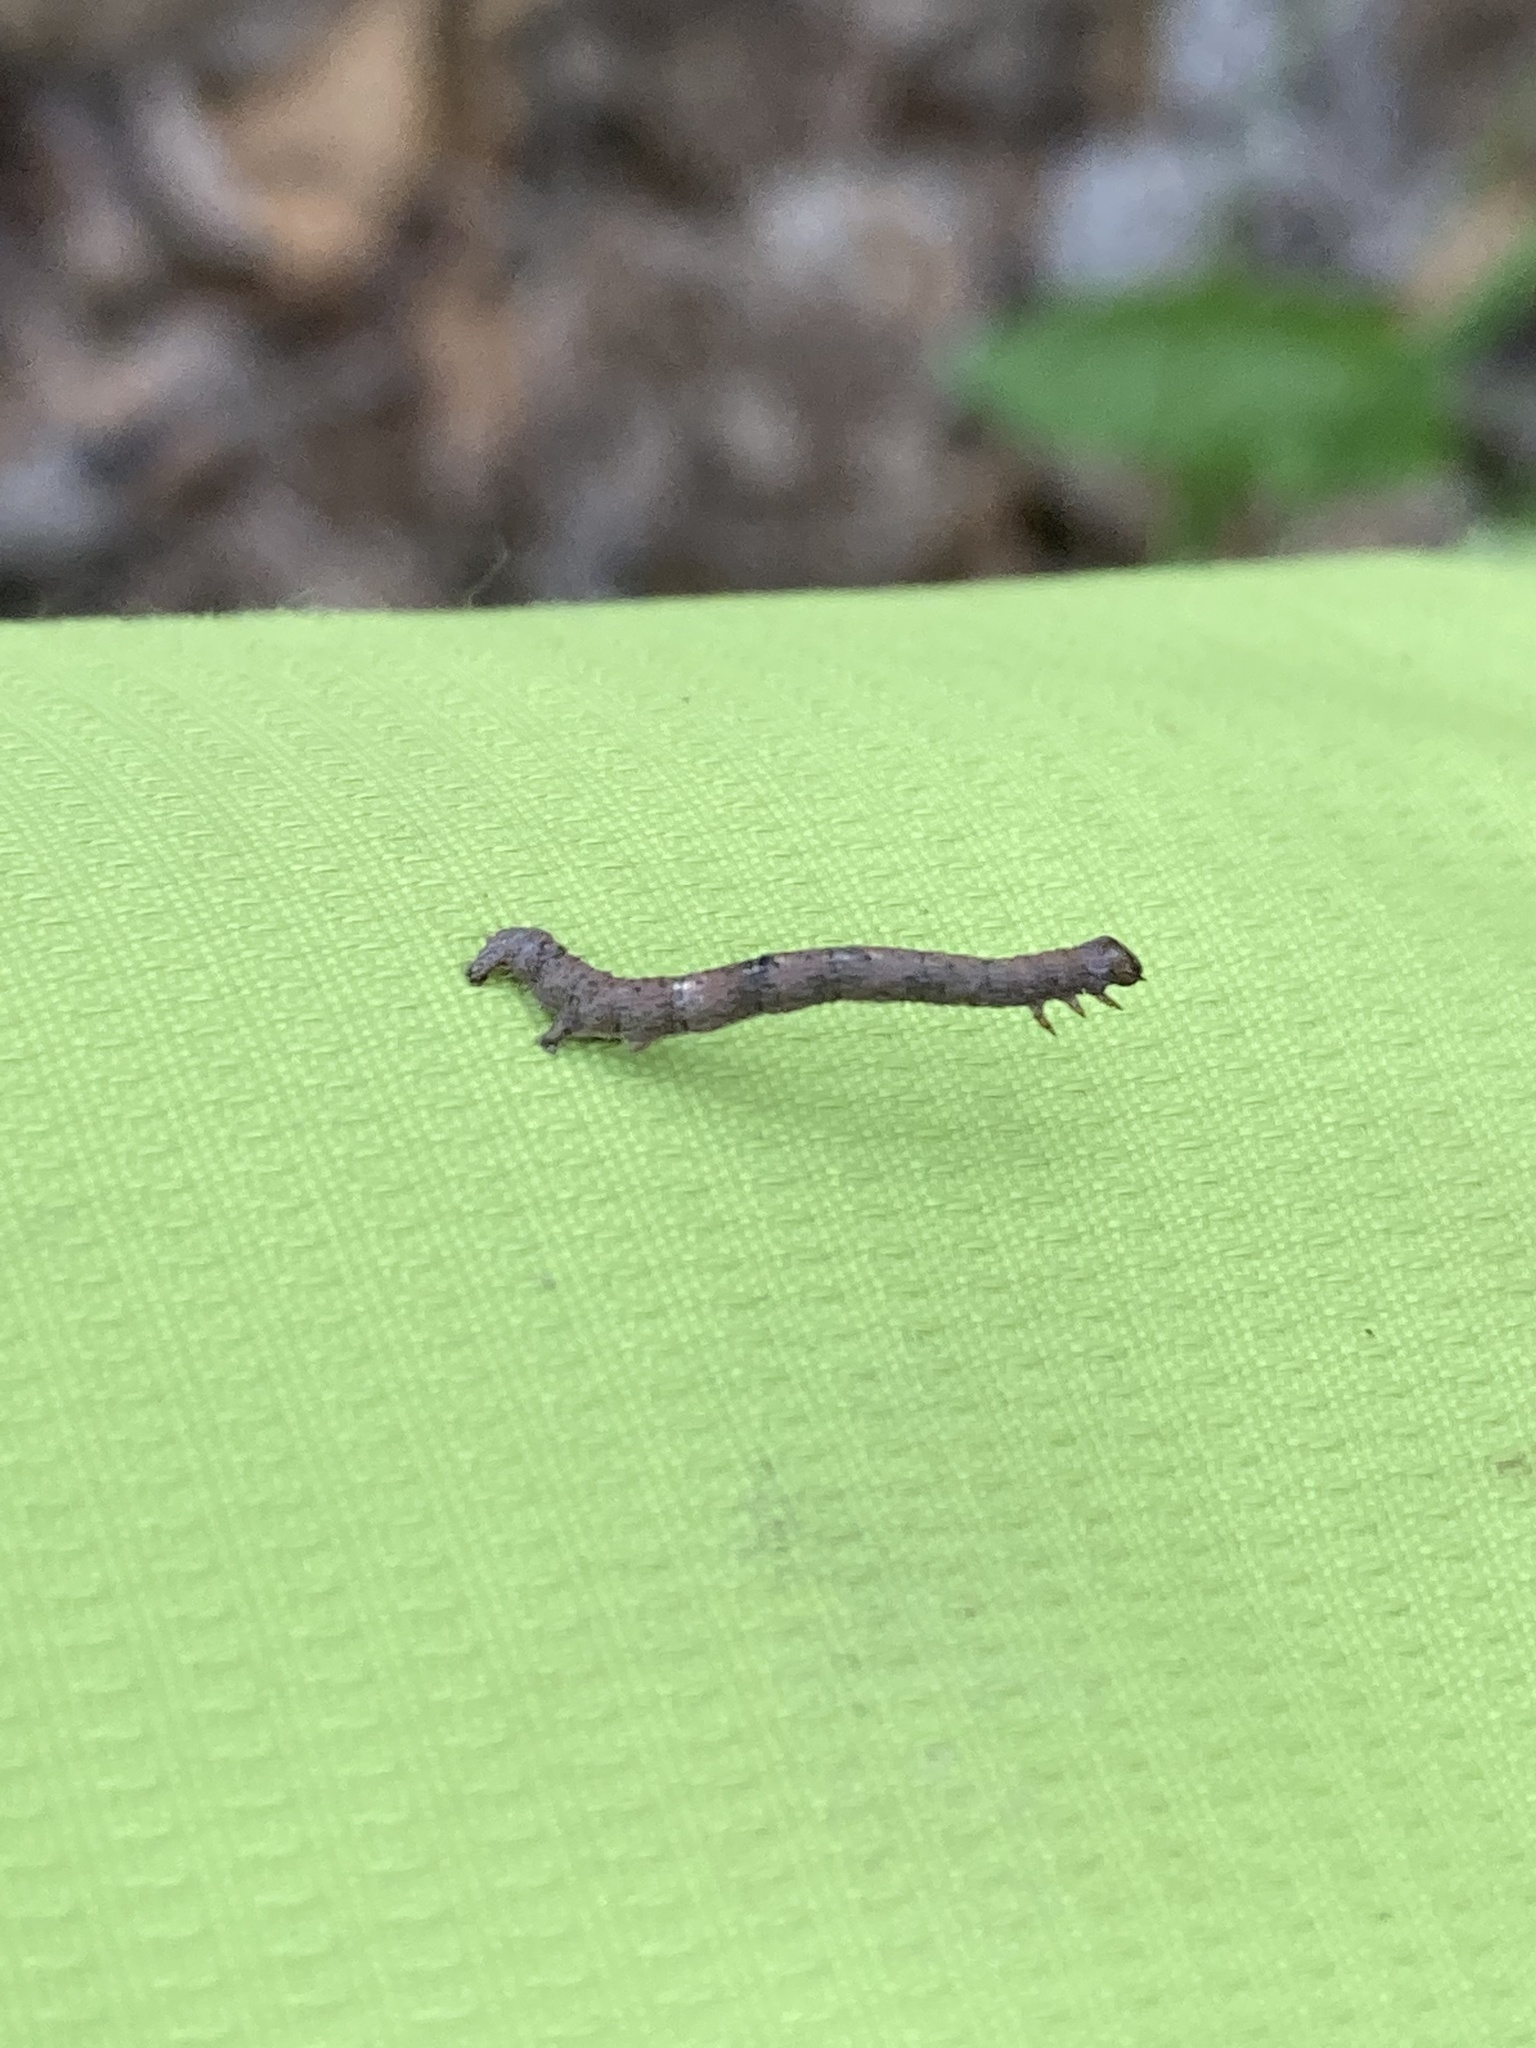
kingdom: Animalia
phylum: Arthropoda
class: Insecta
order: Lepidoptera
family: Geometridae
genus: Ectropis
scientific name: Ectropis crepuscularia
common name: Engrailed
